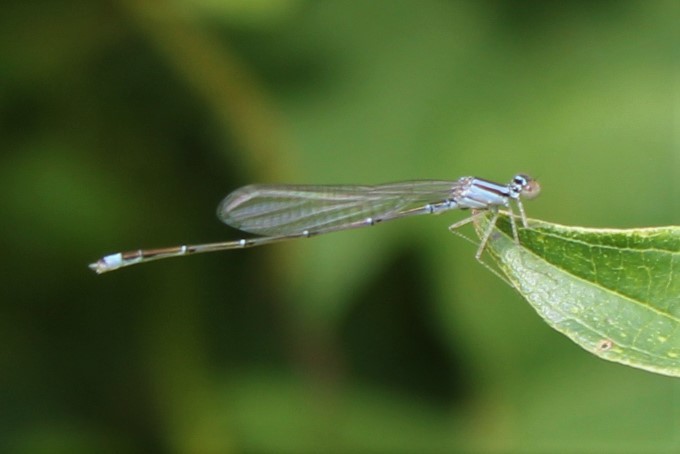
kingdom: Animalia
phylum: Arthropoda
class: Insecta
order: Odonata
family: Coenagrionidae
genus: Enallagma
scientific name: Enallagma signatum
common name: Orange bluet
